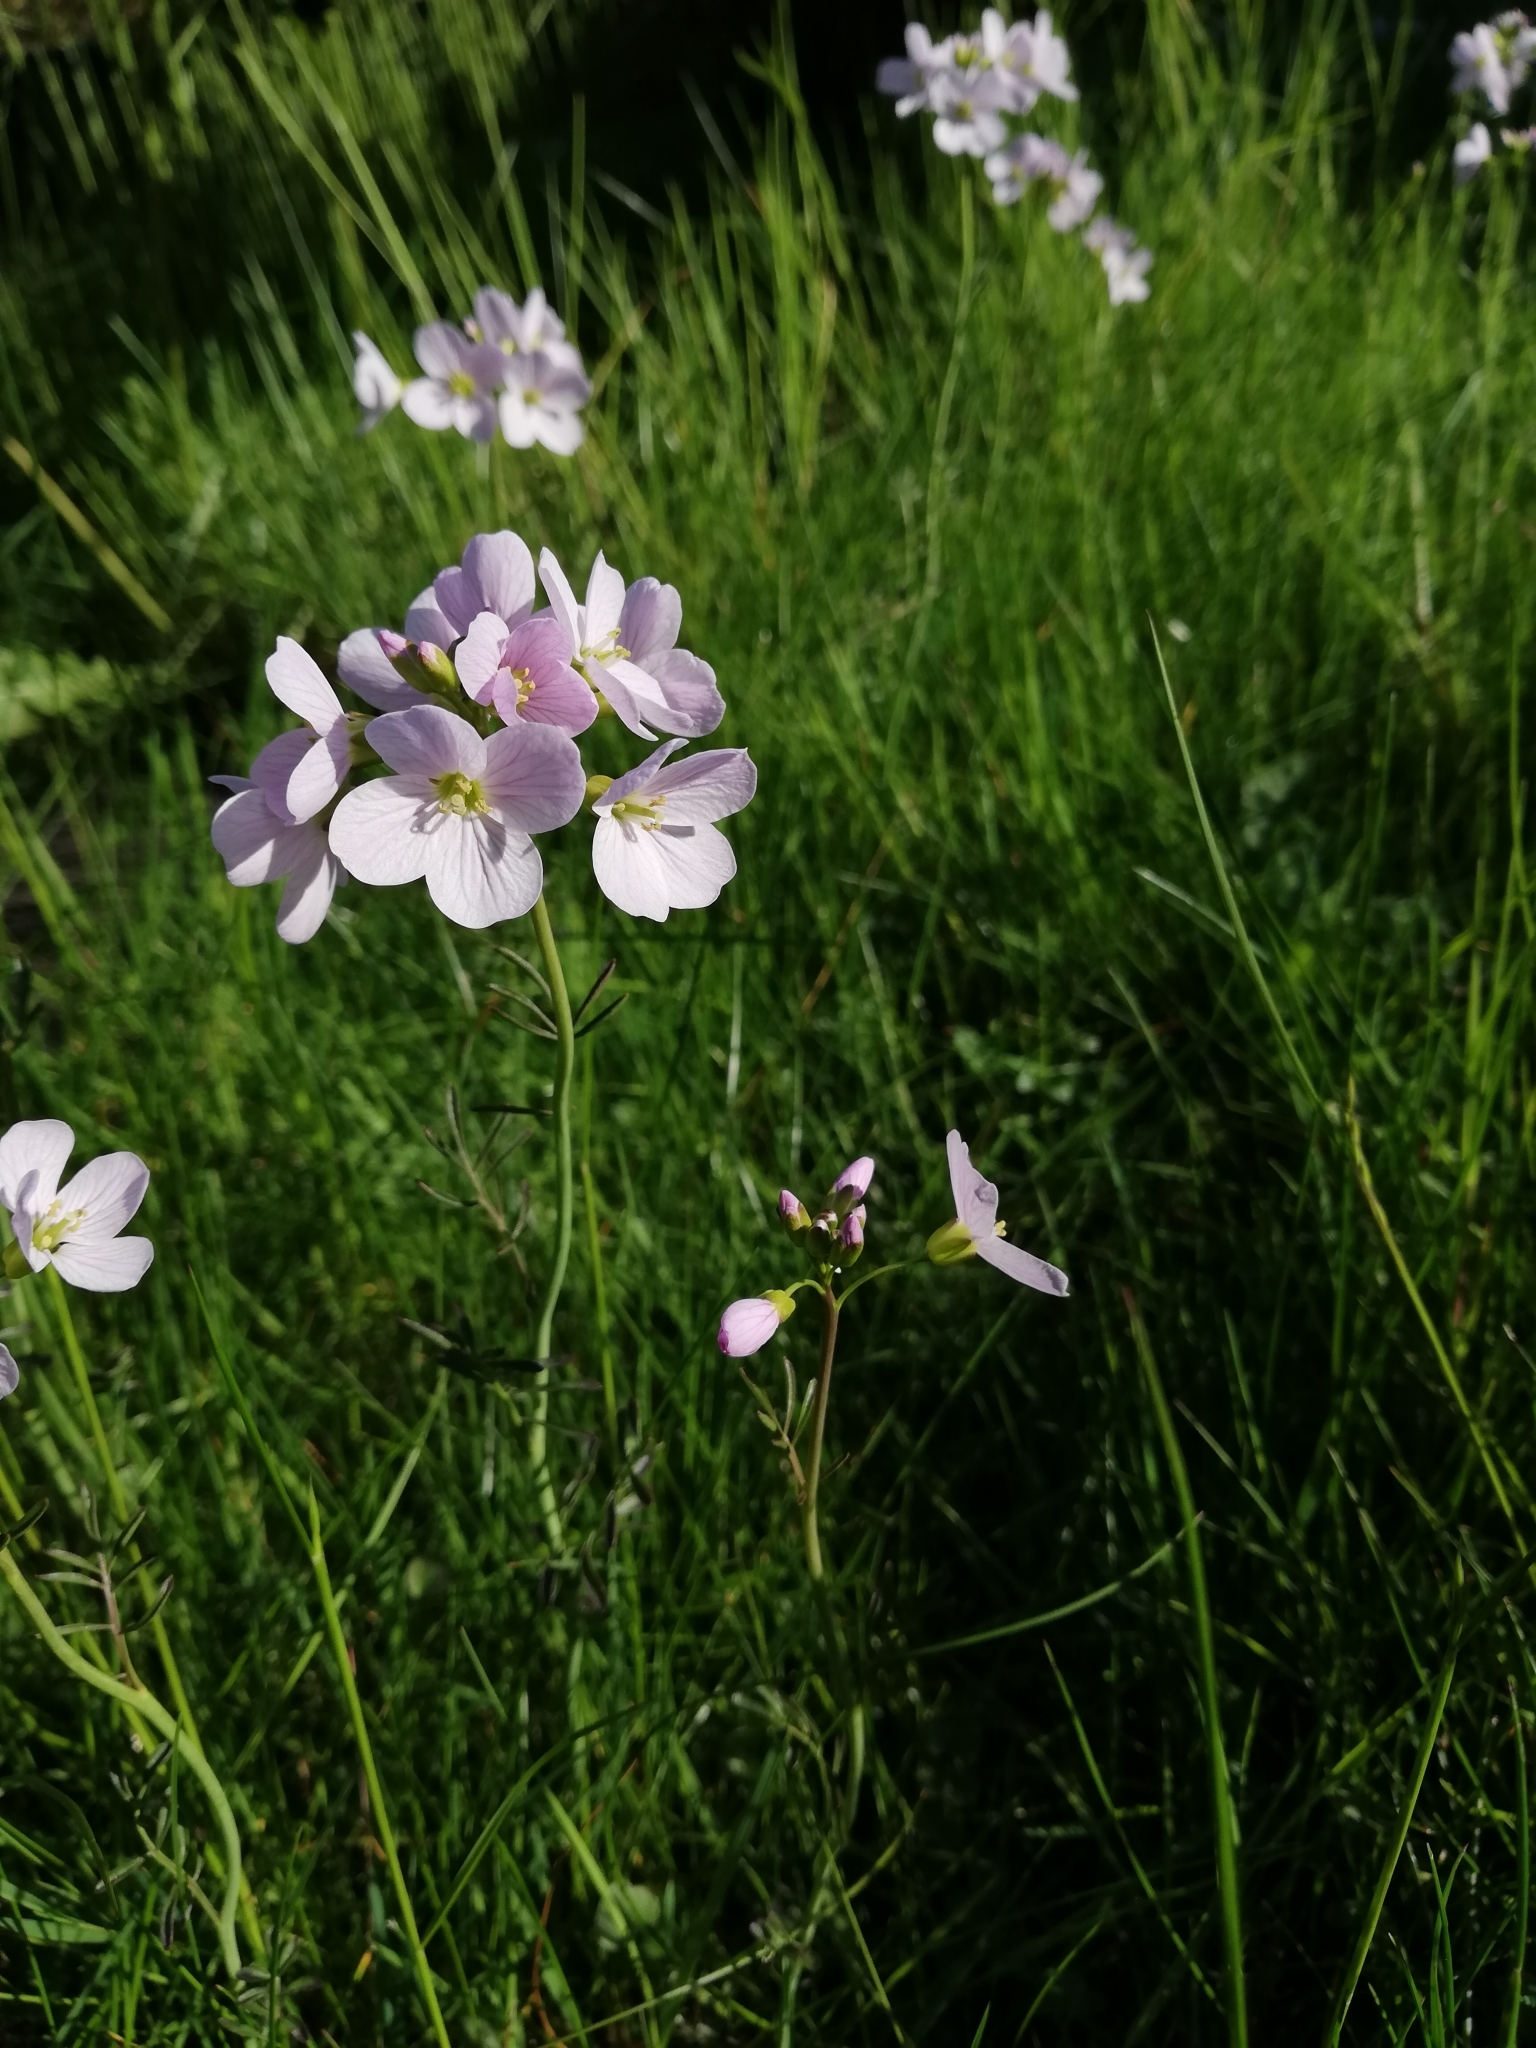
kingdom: Plantae
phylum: Tracheophyta
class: Magnoliopsida
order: Brassicales
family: Brassicaceae
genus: Cardamine
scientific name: Cardamine pratensis
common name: Cuckoo flower
